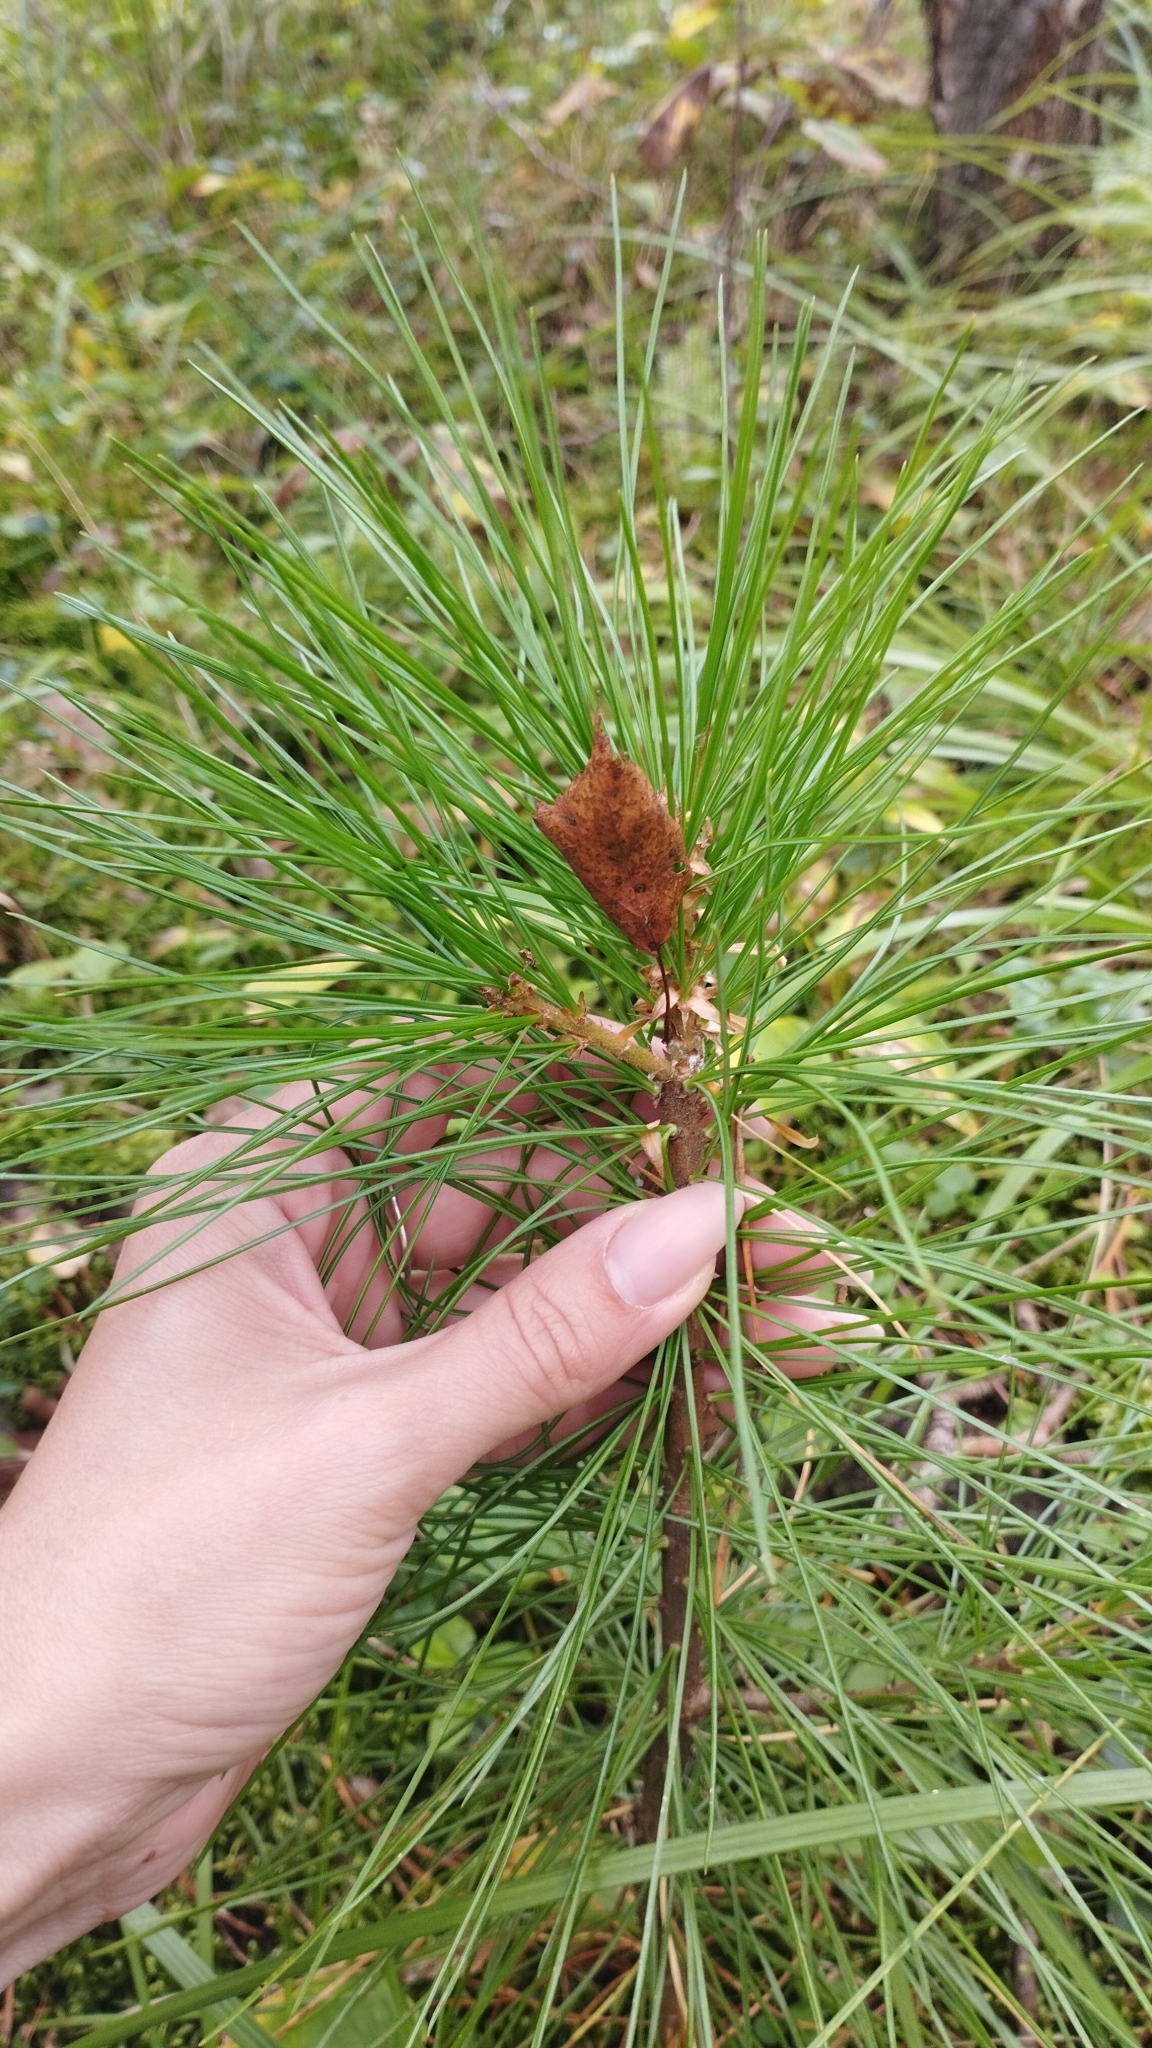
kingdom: Plantae
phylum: Tracheophyta
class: Pinopsida
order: Pinales
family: Pinaceae
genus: Pinus
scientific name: Pinus sibirica
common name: Siberian pine
